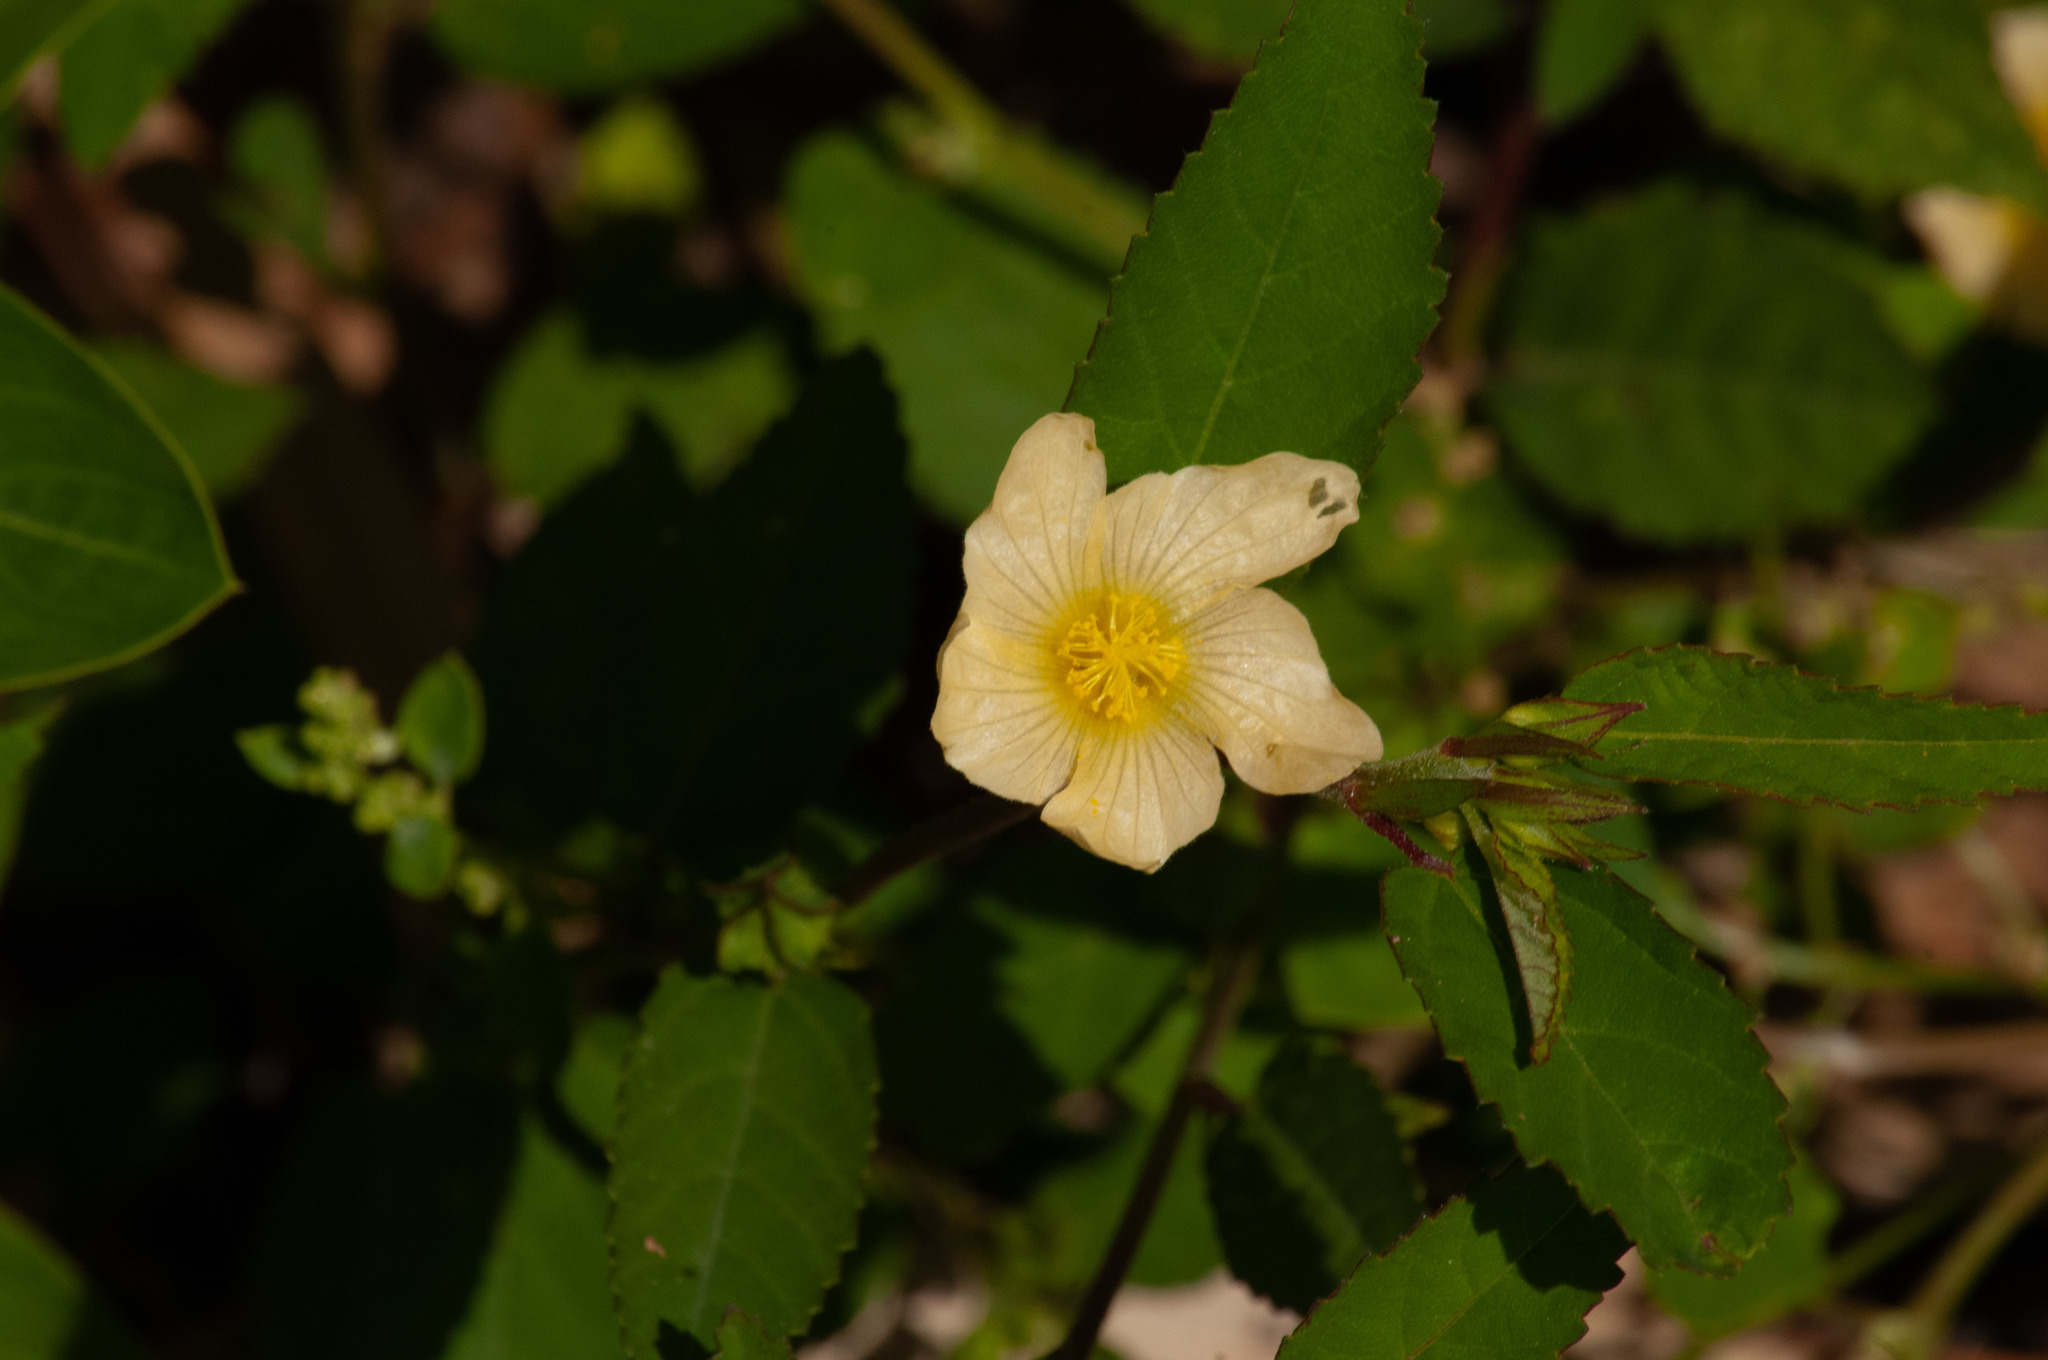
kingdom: Plantae
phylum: Tracheophyta
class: Magnoliopsida
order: Malvales
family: Malvaceae
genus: Sida
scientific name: Sida rhombifolia
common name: Queensland-hemp
